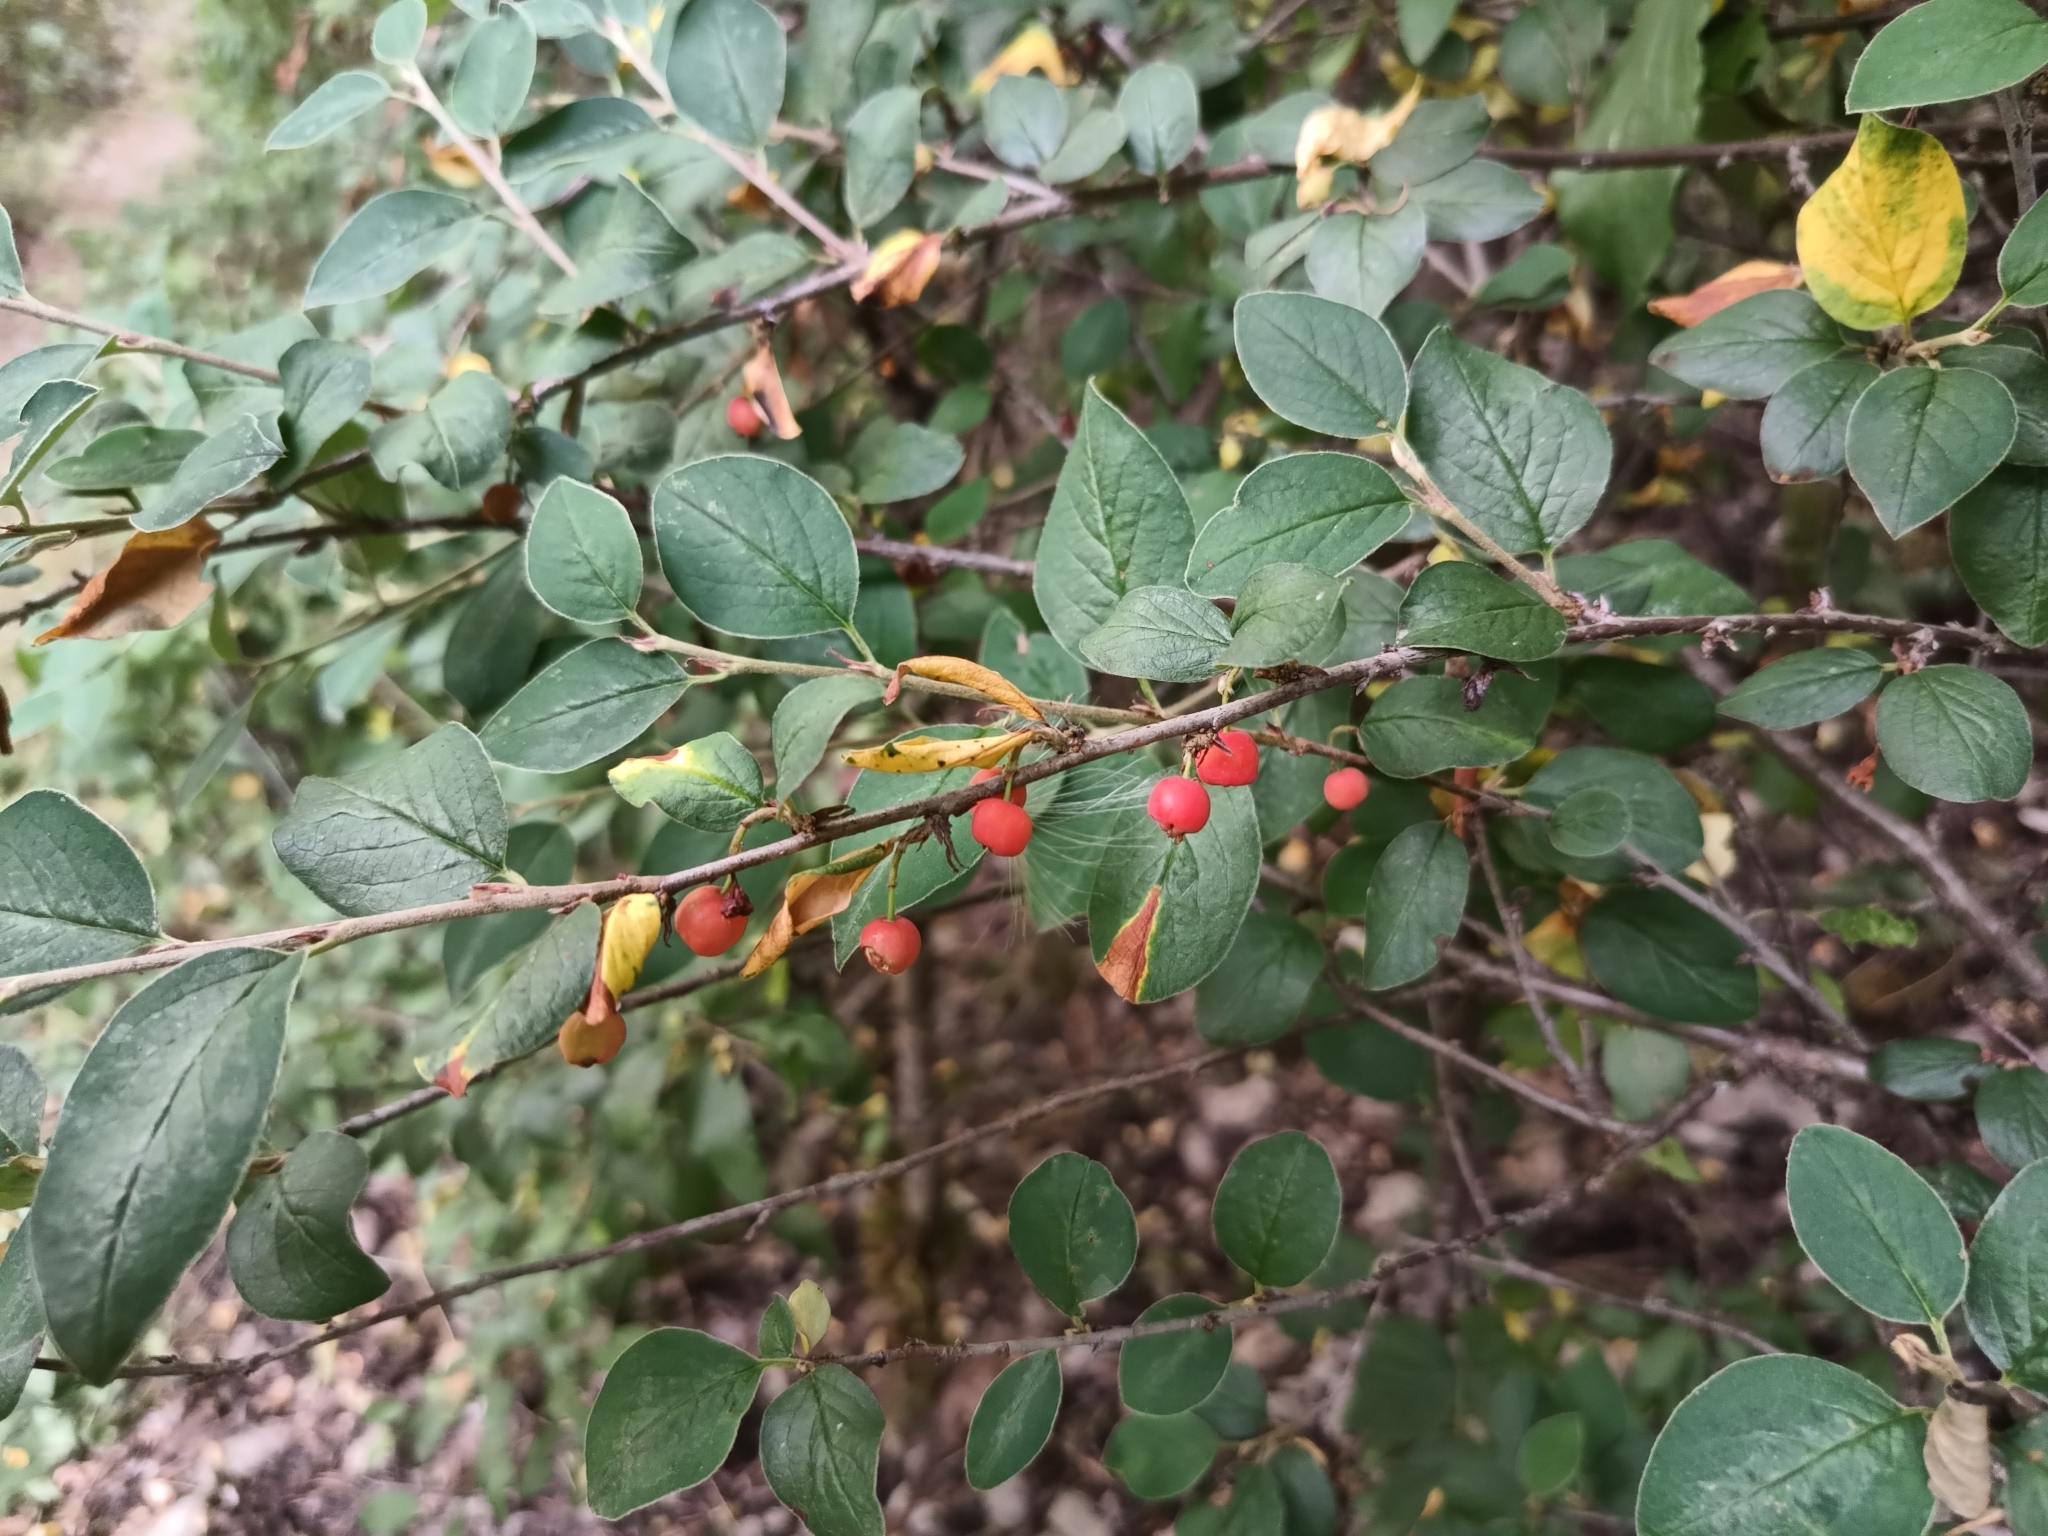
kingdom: Plantae
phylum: Tracheophyta
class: Magnoliopsida
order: Rosales
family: Rosaceae
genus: Cotoneaster
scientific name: Cotoneaster integerrimus
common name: Wild cotoneaster
